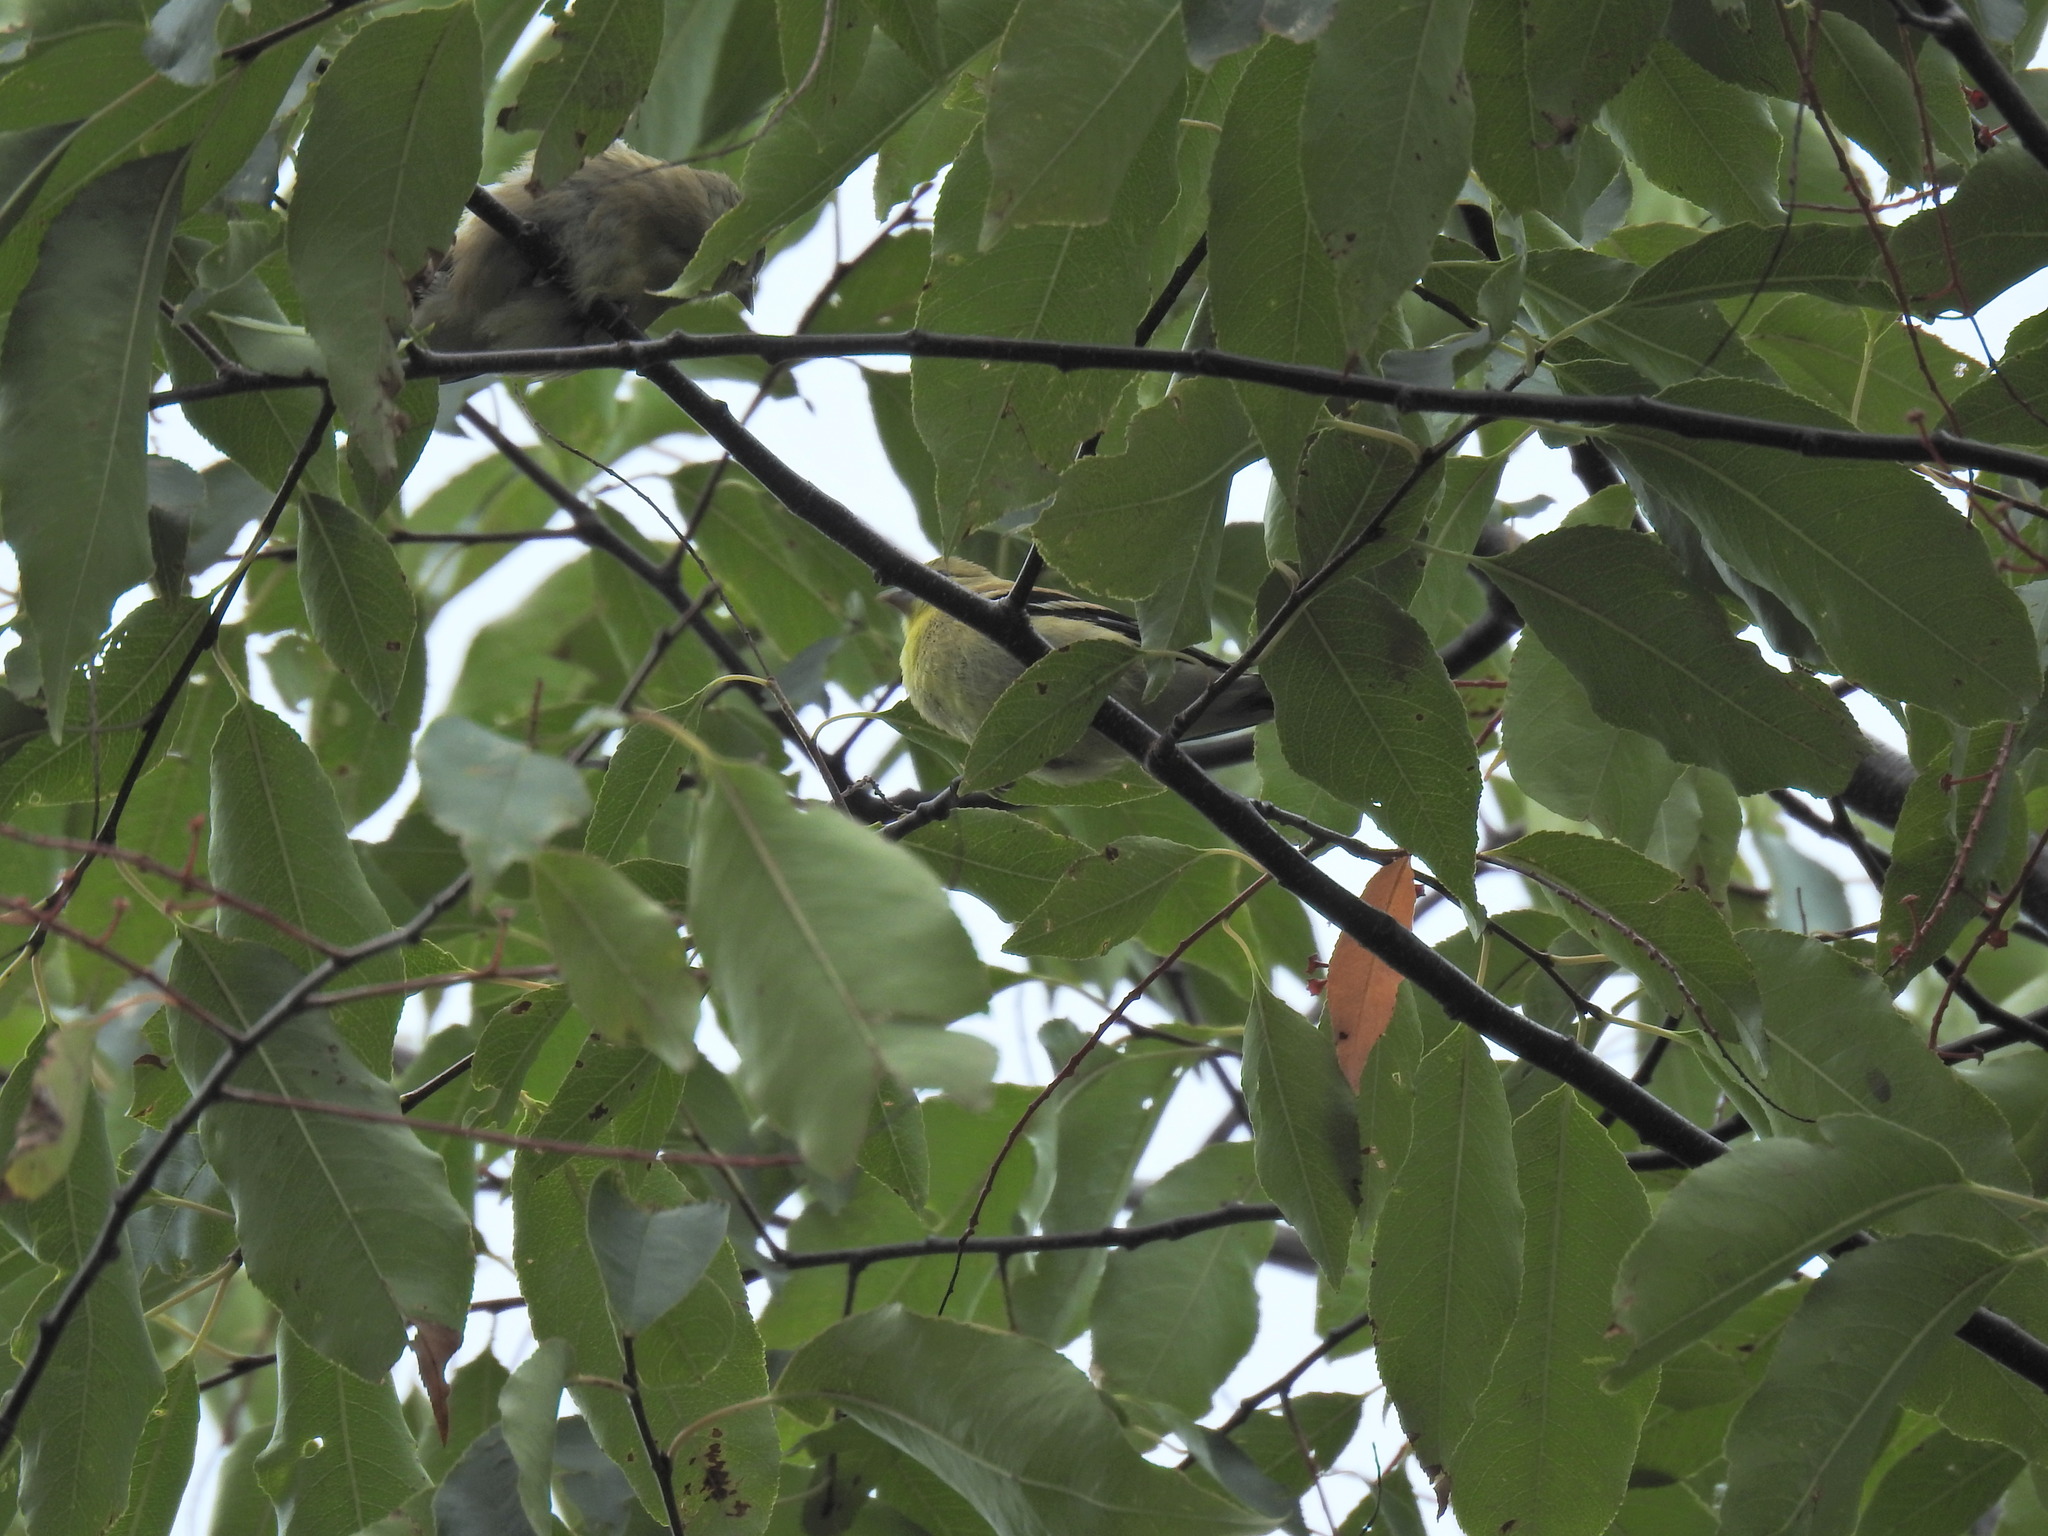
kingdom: Animalia
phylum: Chordata
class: Aves
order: Passeriformes
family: Fringillidae
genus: Spinus
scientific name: Spinus tristis
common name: American goldfinch
